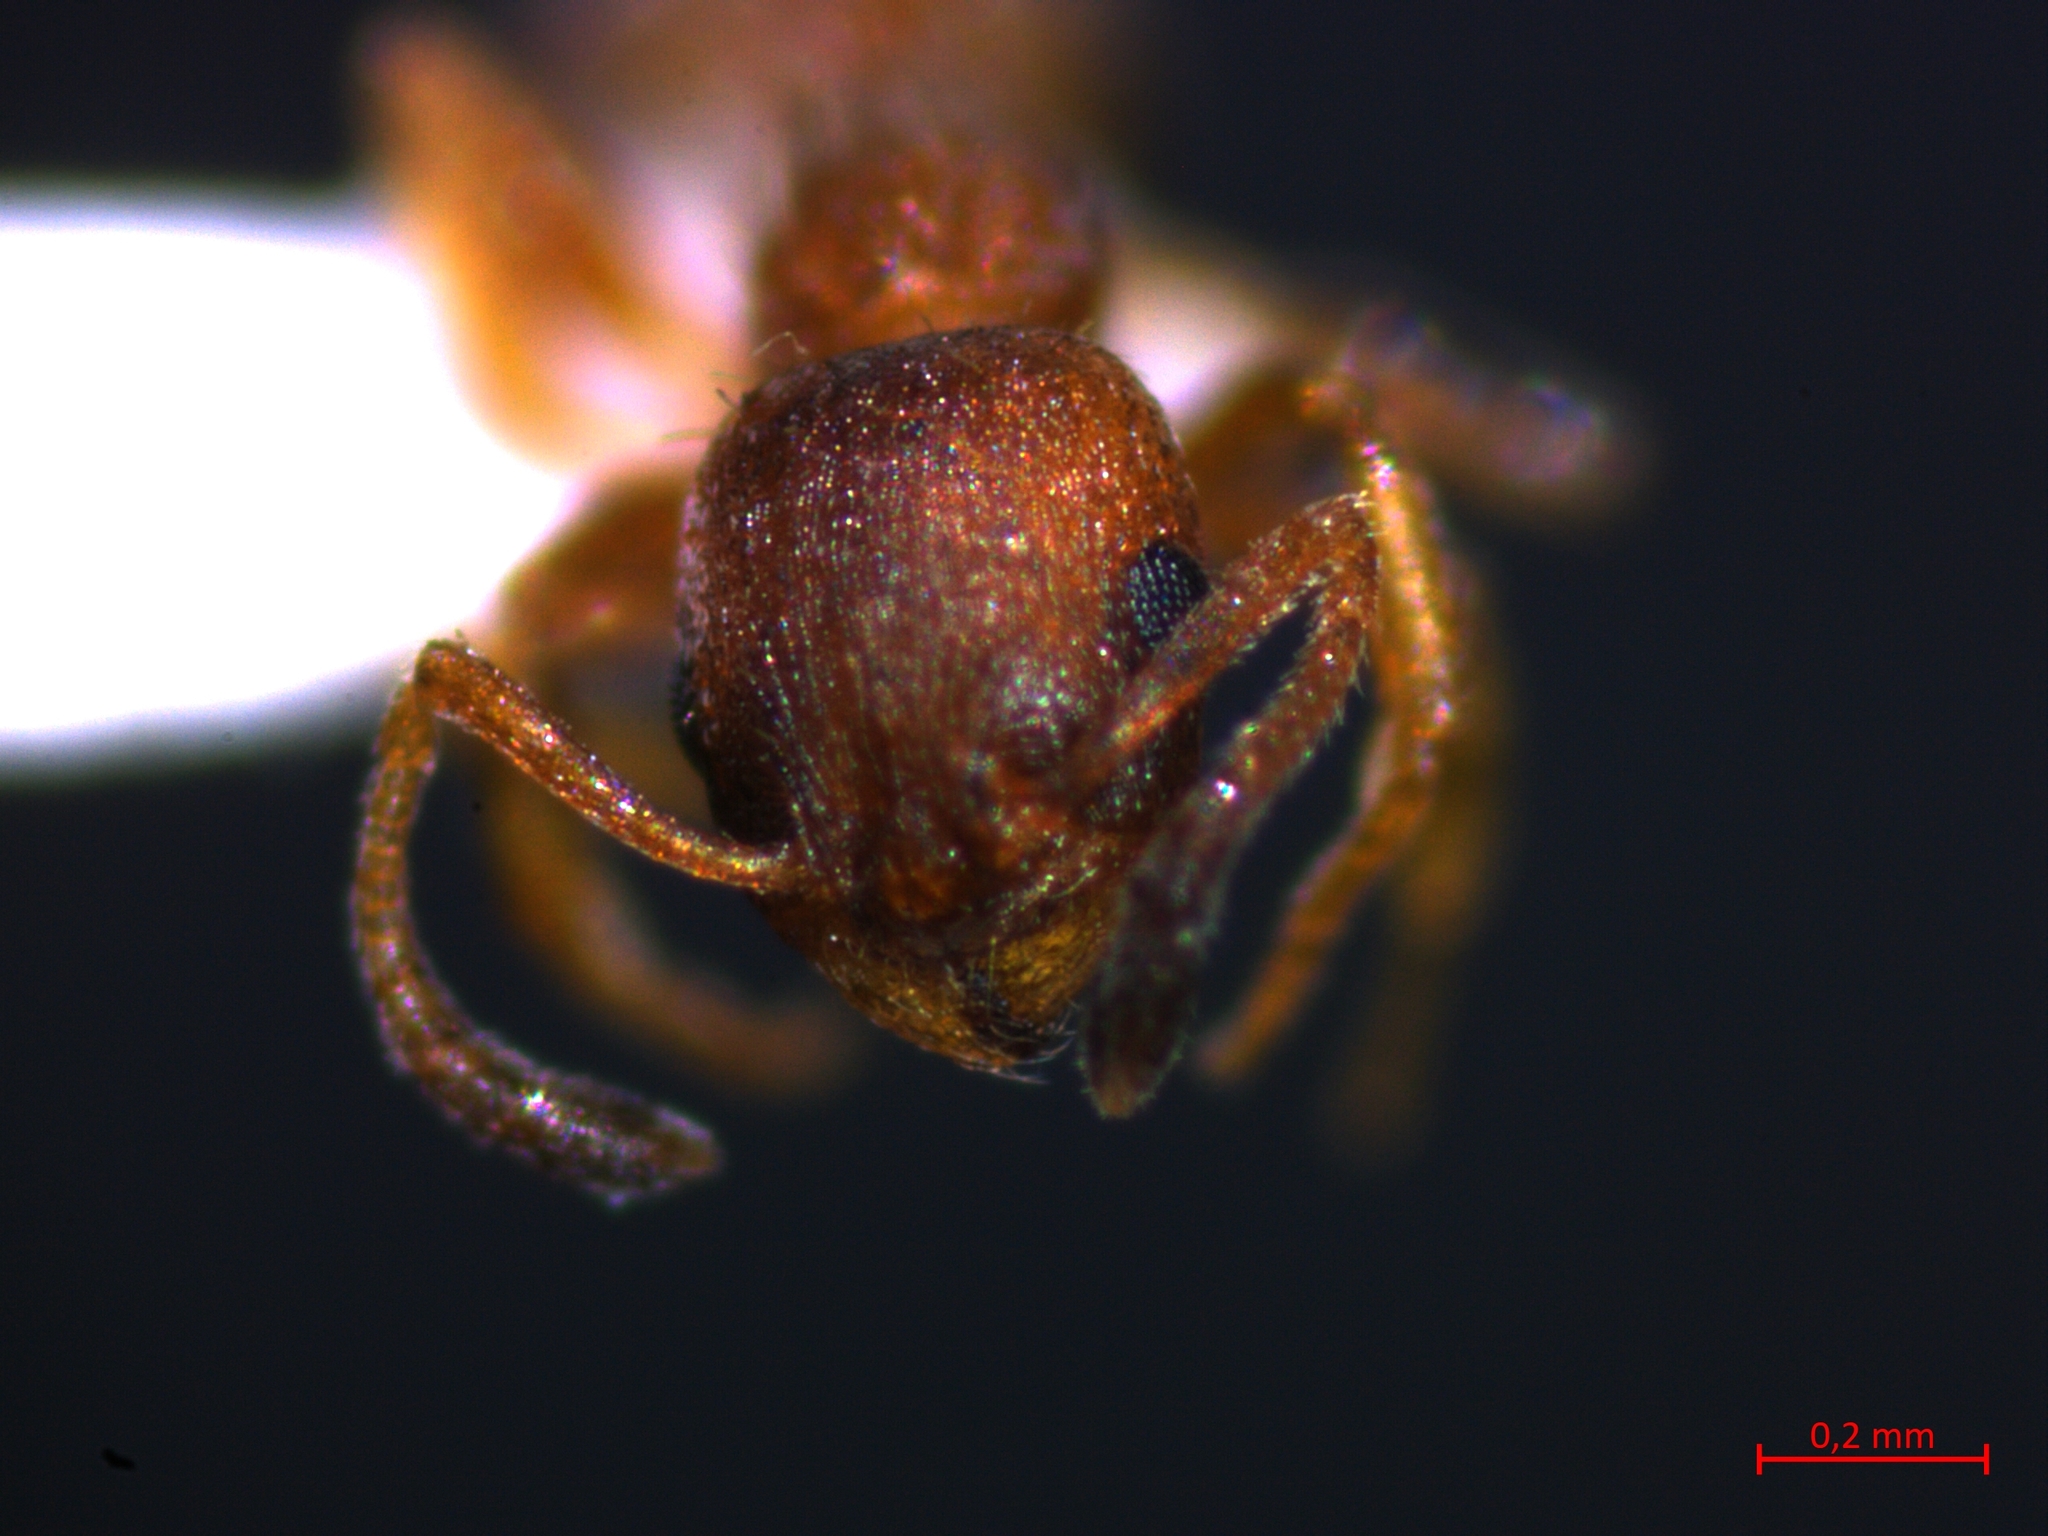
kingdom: Animalia
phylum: Arthropoda
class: Insecta
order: Hymenoptera
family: Formicidae
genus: Leptothorax
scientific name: Leptothorax unifasciatus
